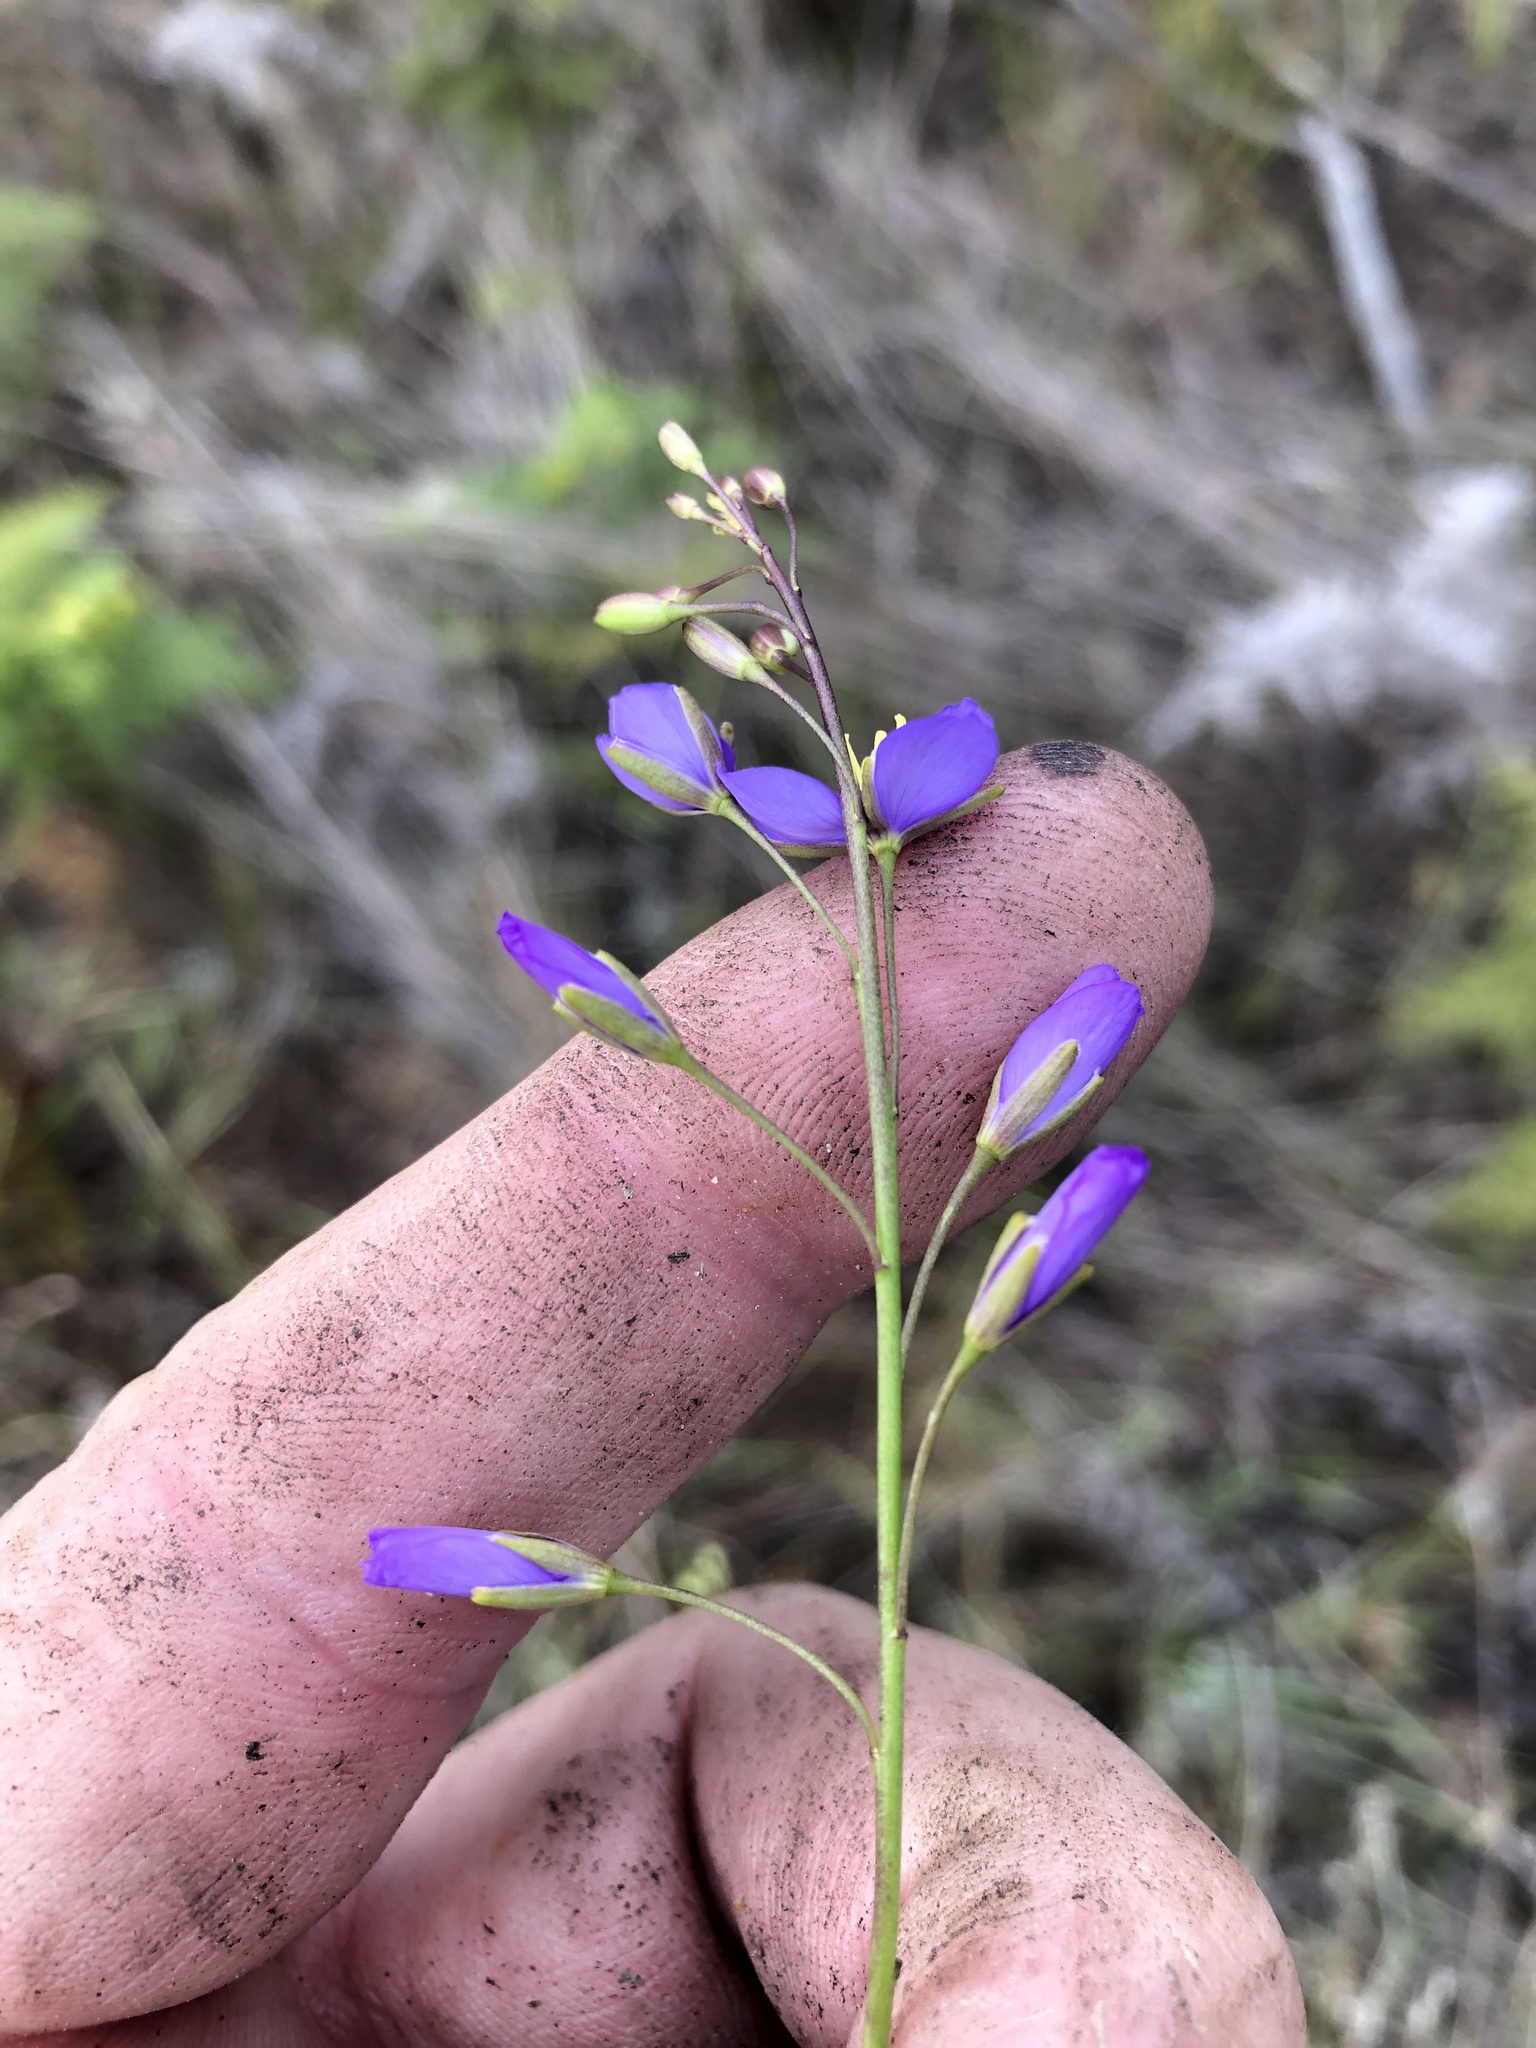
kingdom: Plantae
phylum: Tracheophyta
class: Magnoliopsida
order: Brassicales
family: Brassicaceae
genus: Heliophila
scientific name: Heliophila subulata
